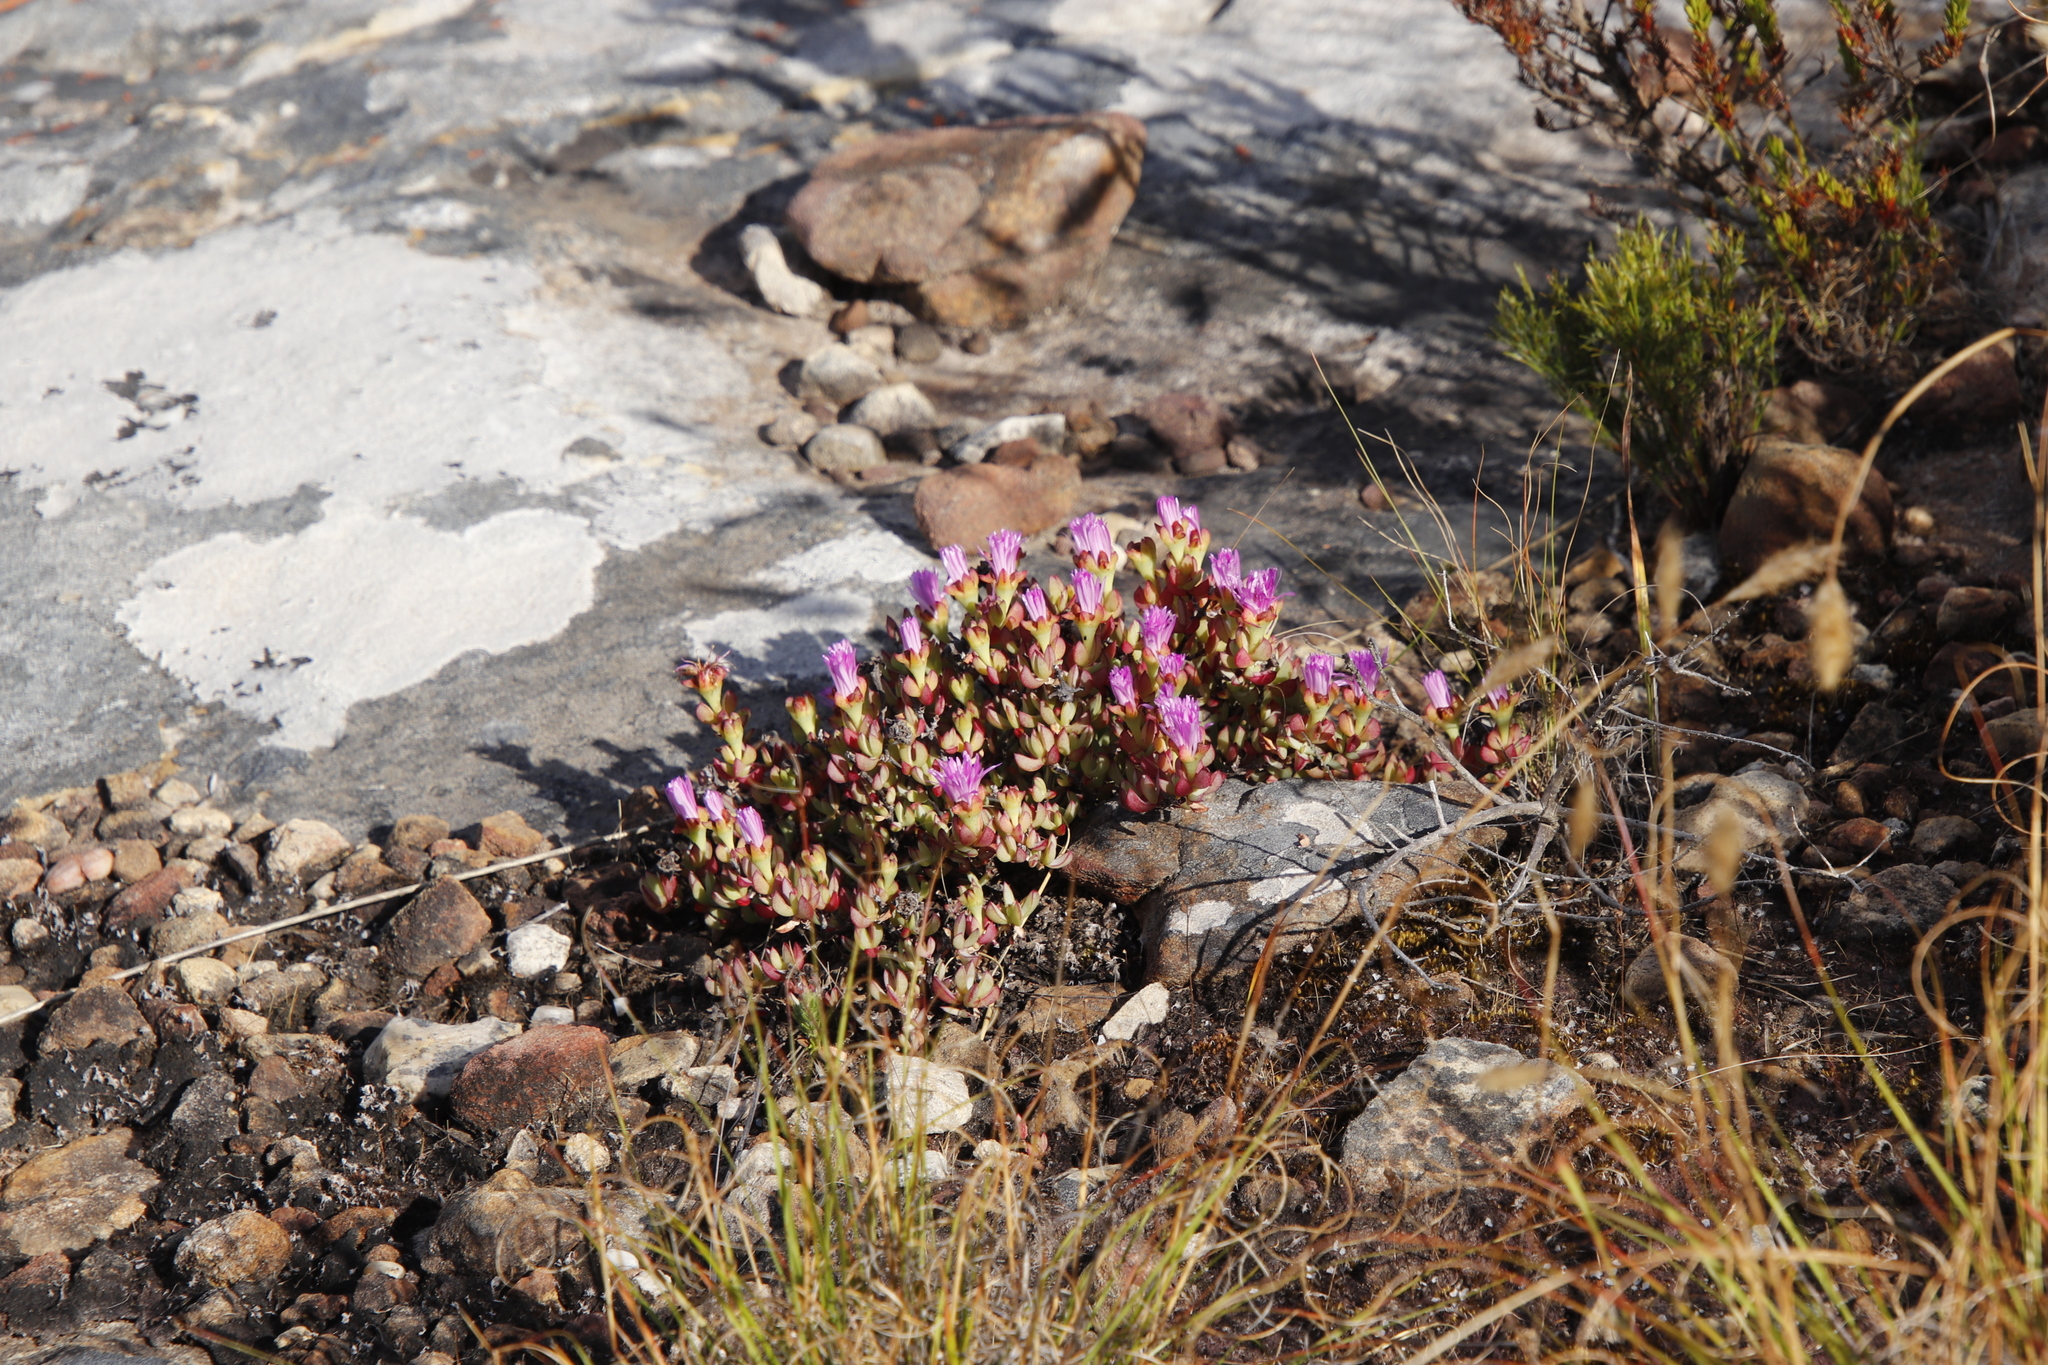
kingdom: Plantae
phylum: Tracheophyta
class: Magnoliopsida
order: Caryophyllales
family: Aizoaceae
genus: Oscularia
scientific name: Oscularia falciformis
